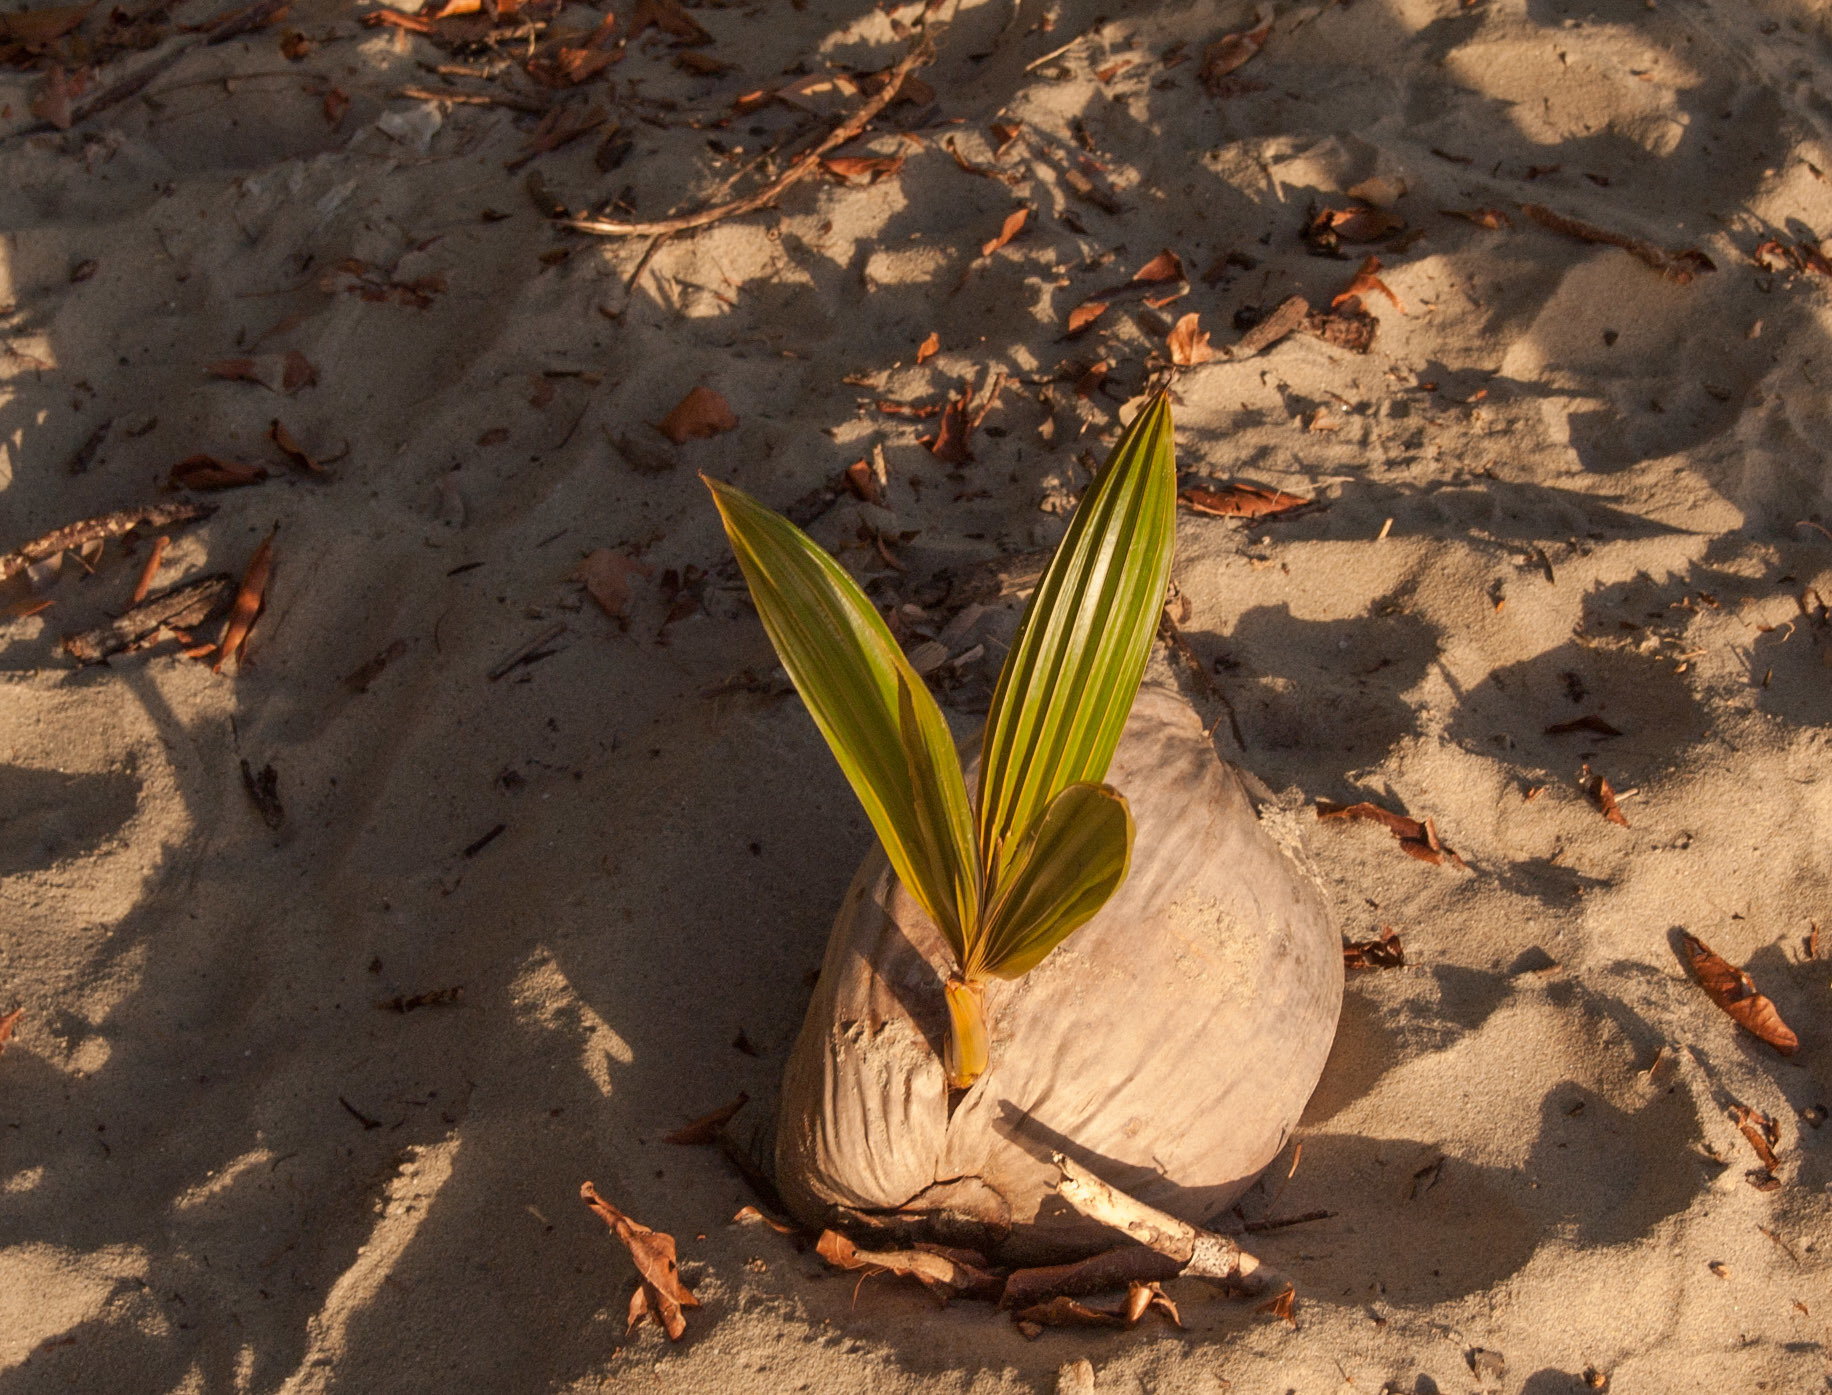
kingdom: Plantae
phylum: Tracheophyta
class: Liliopsida
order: Arecales
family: Arecaceae
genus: Cocos
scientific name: Cocos nucifera
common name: Coconut palm
